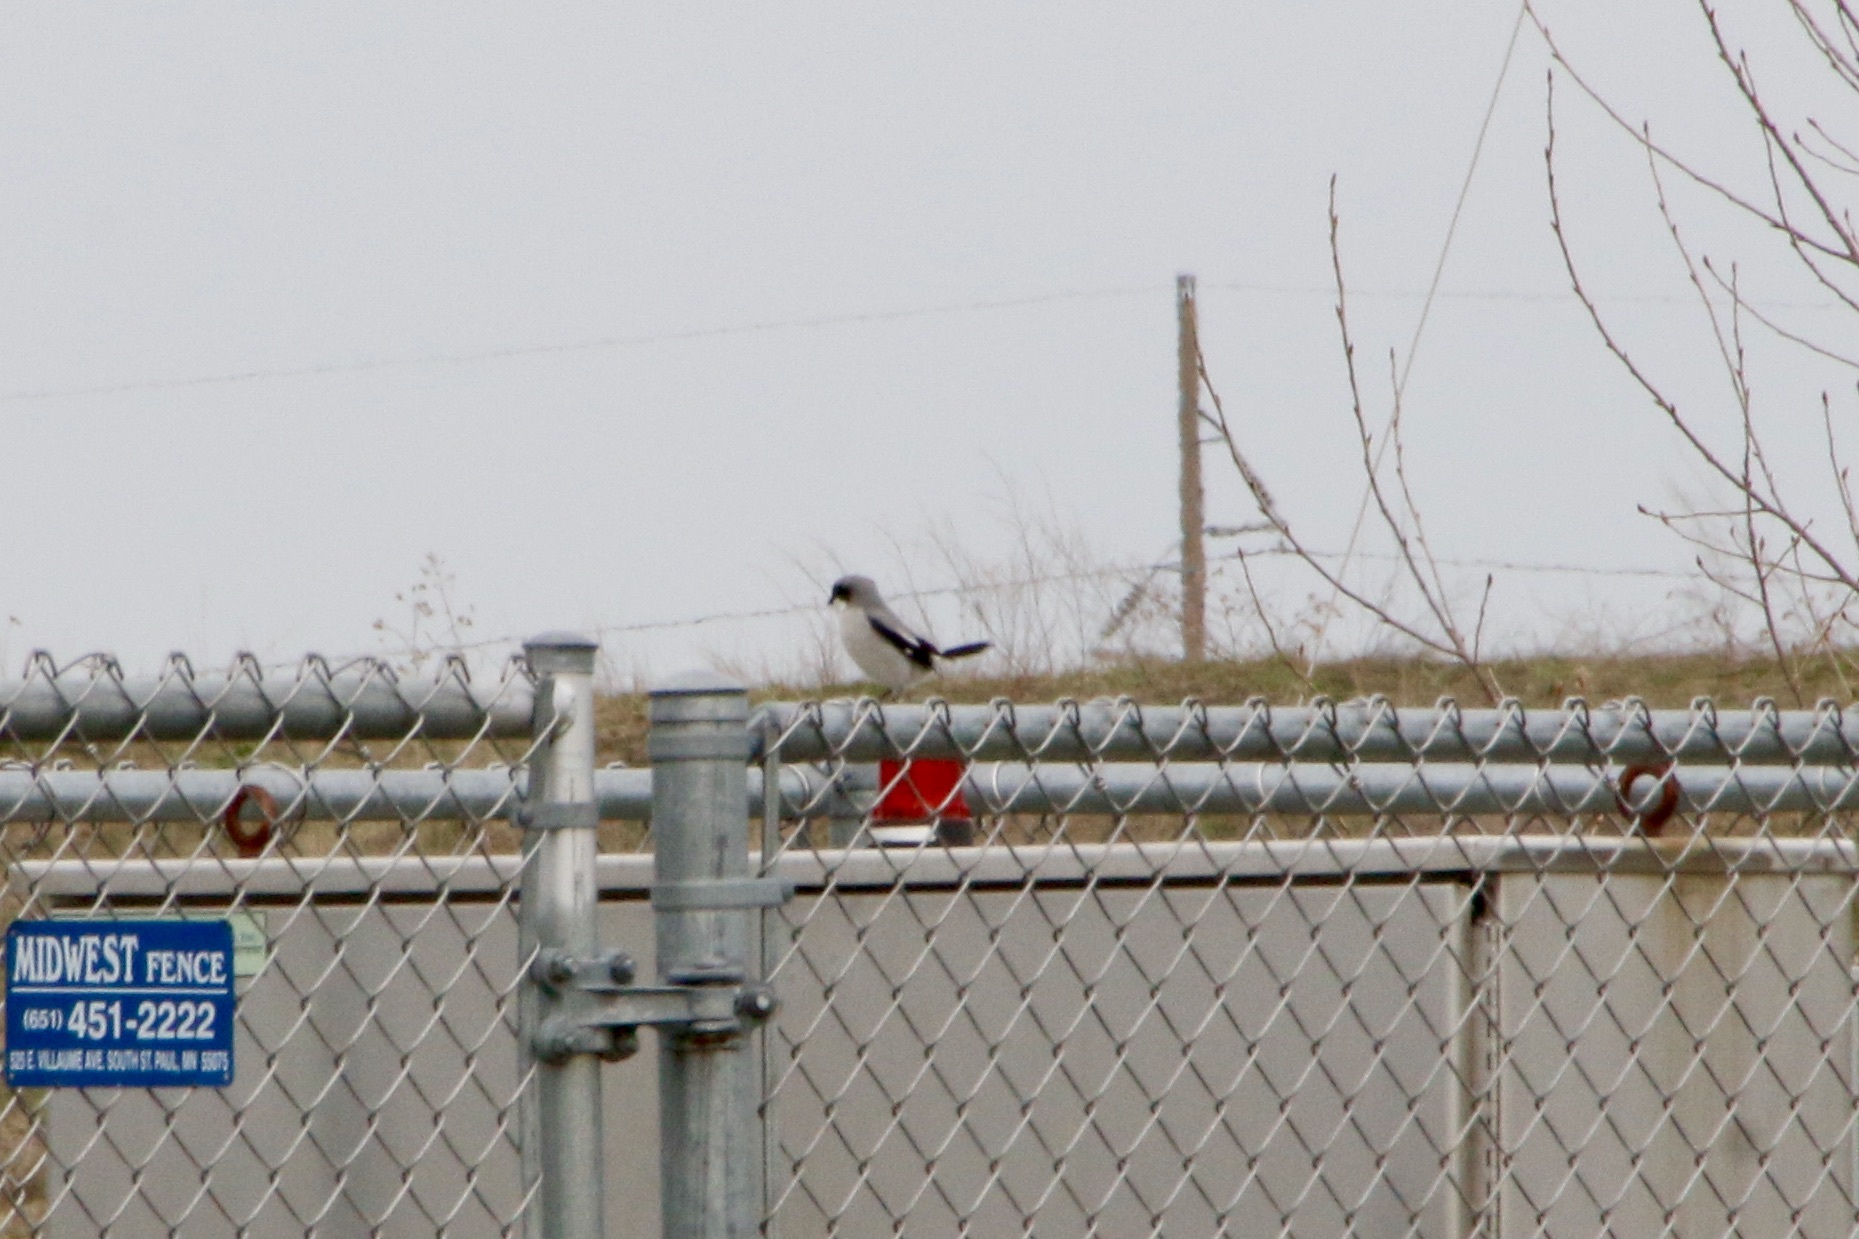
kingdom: Animalia
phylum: Chordata
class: Aves
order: Passeriformes
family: Laniidae
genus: Lanius
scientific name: Lanius ludovicianus
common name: Loggerhead shrike
